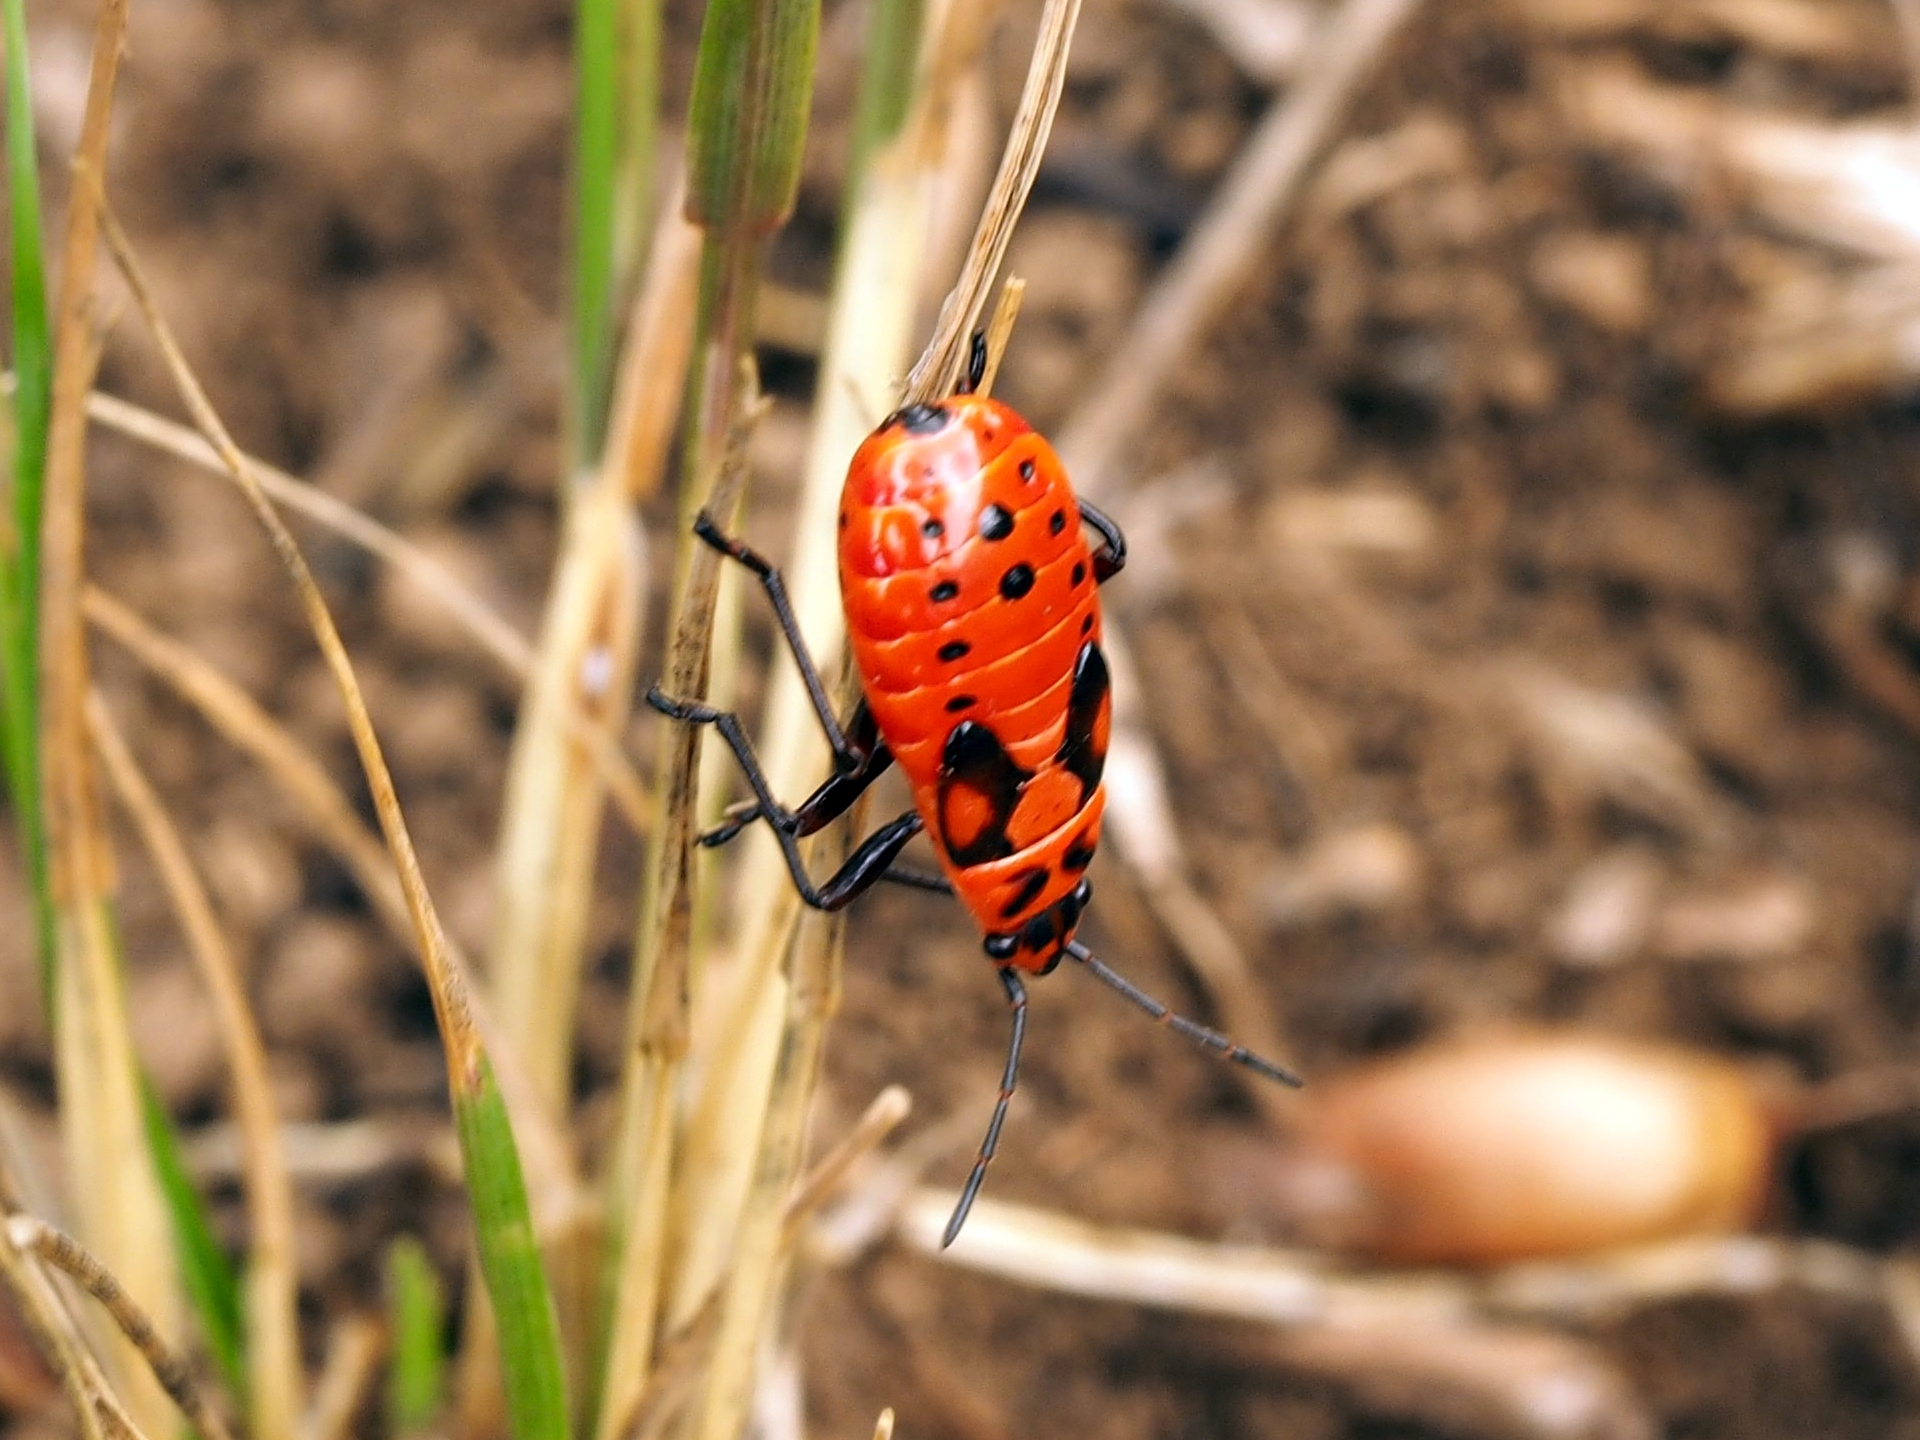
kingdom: Animalia
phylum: Arthropoda
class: Insecta
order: Hemiptera
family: Lygaeidae
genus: Spilostethus
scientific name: Spilostethus saxatilis
